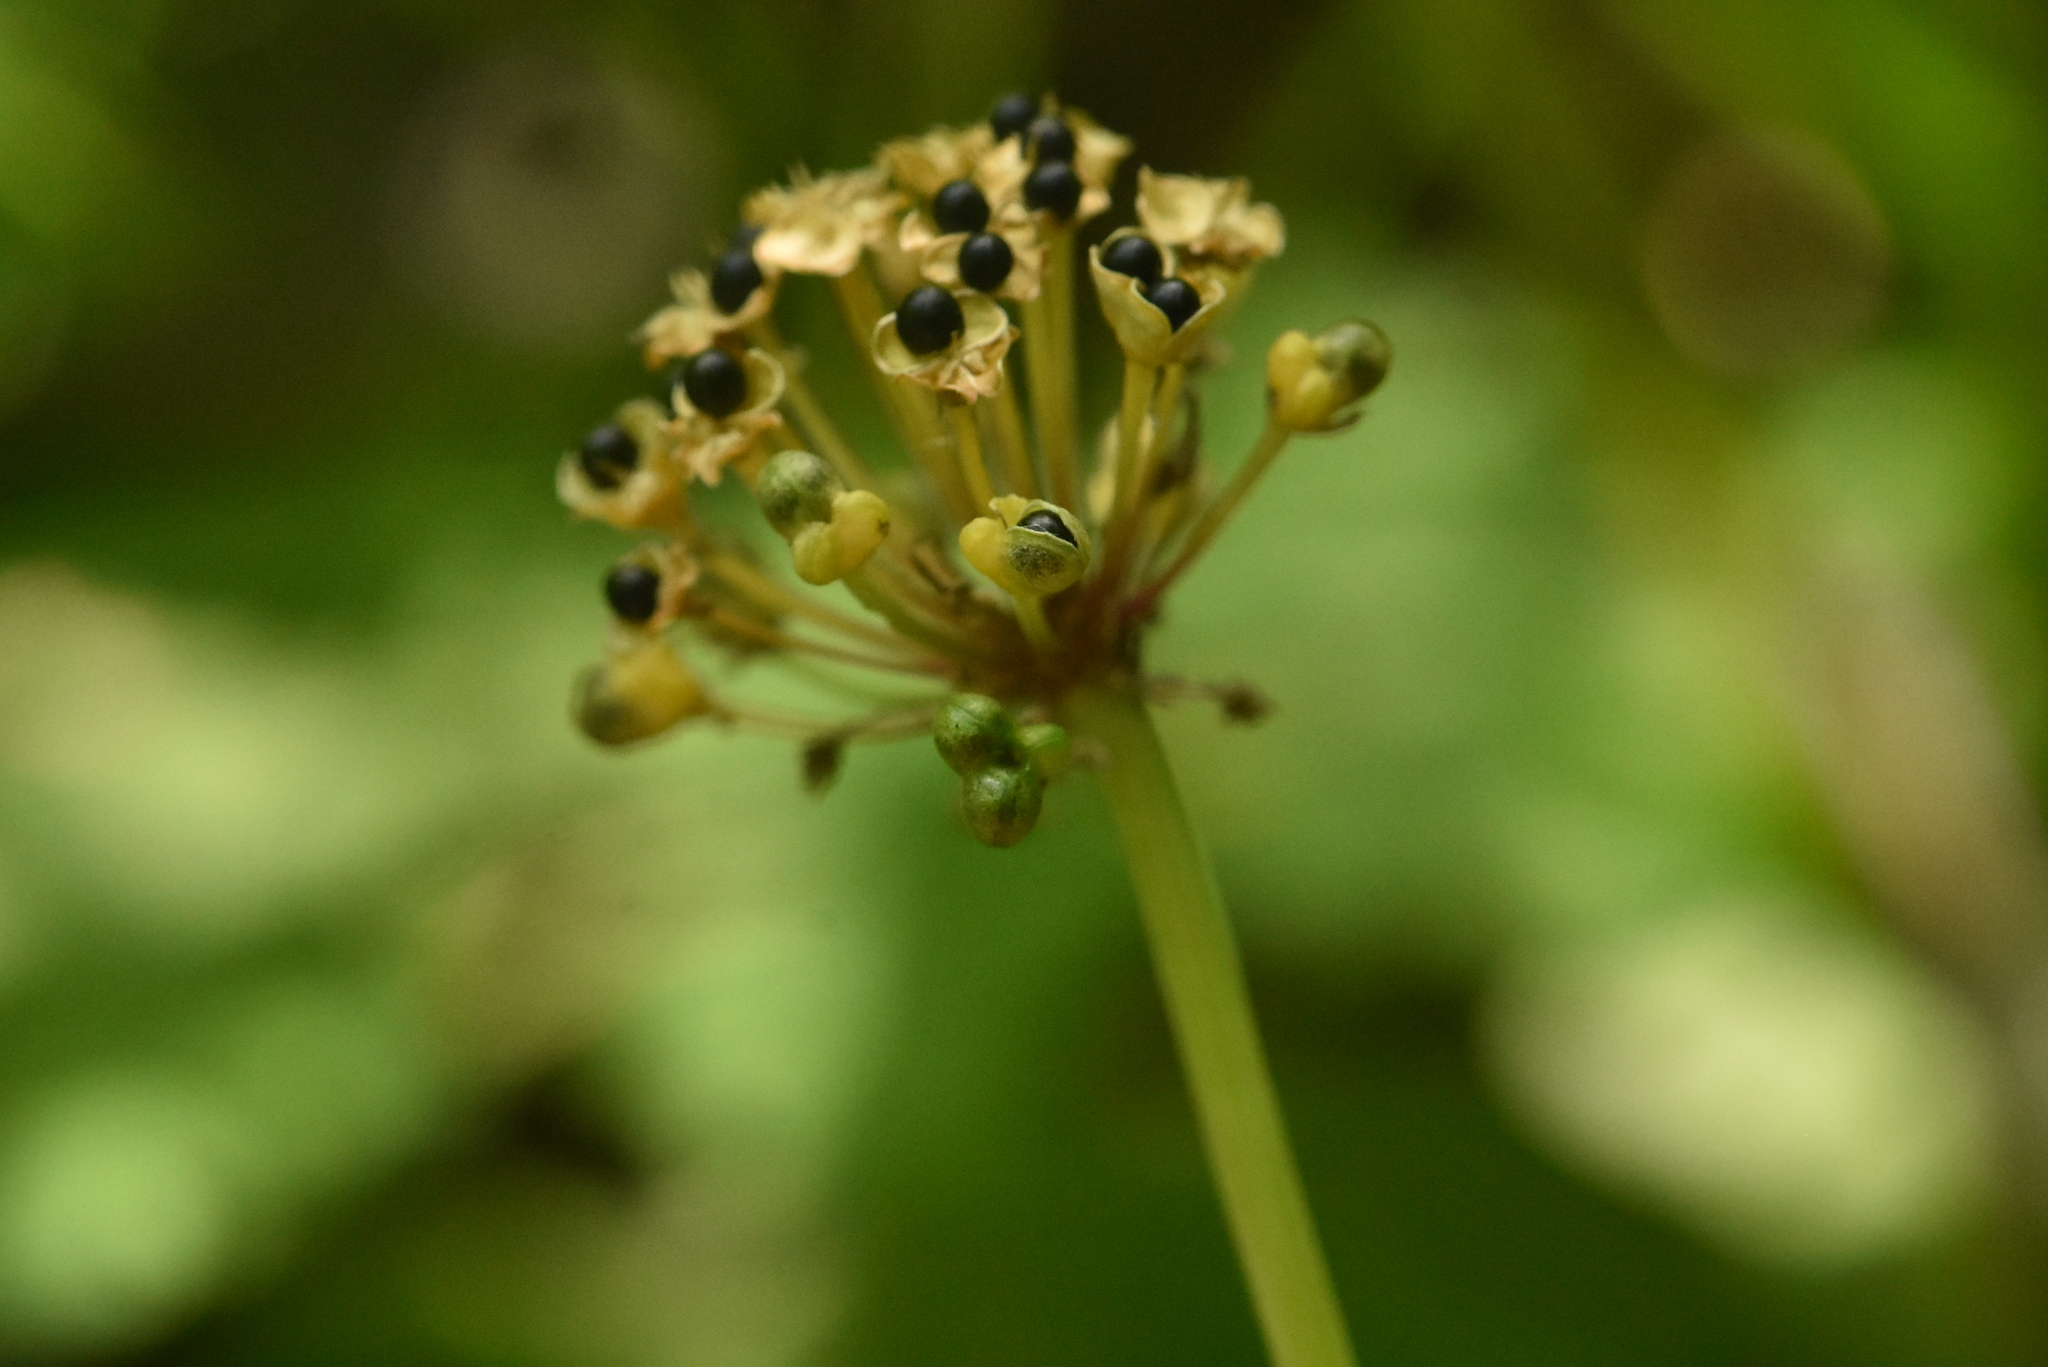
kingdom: Plantae
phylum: Tracheophyta
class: Liliopsida
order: Asparagales
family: Amaryllidaceae
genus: Allium
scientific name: Allium microdictyon
